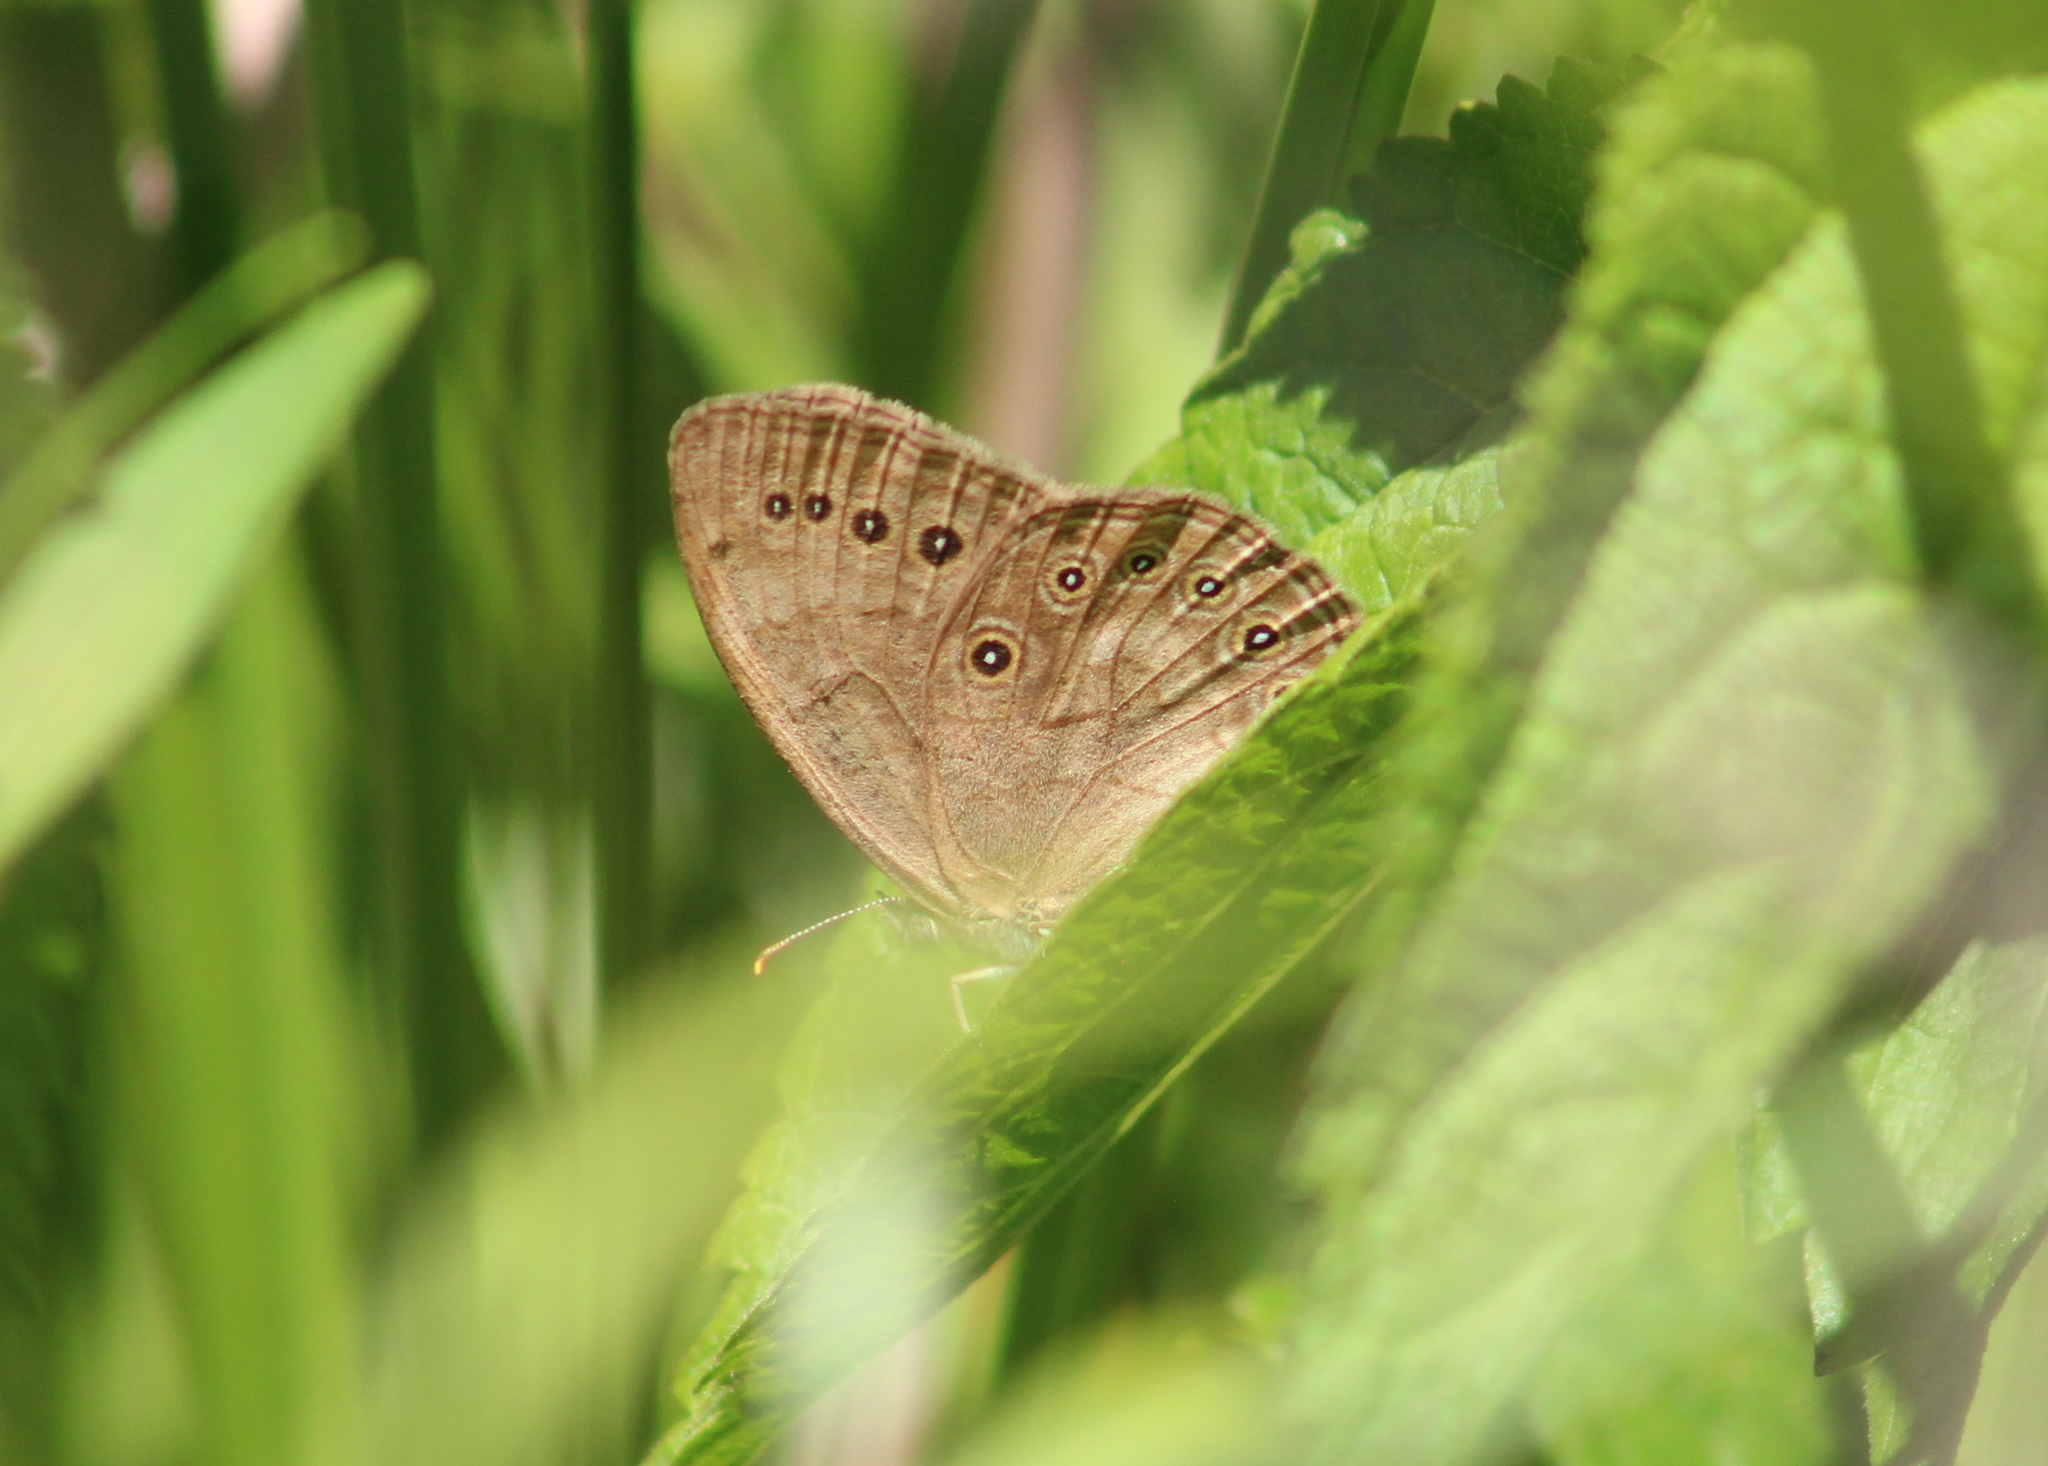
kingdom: Animalia
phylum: Arthropoda
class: Insecta
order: Lepidoptera
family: Nymphalidae
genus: Lethe
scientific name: Lethe eurydice
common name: Eyed brown
